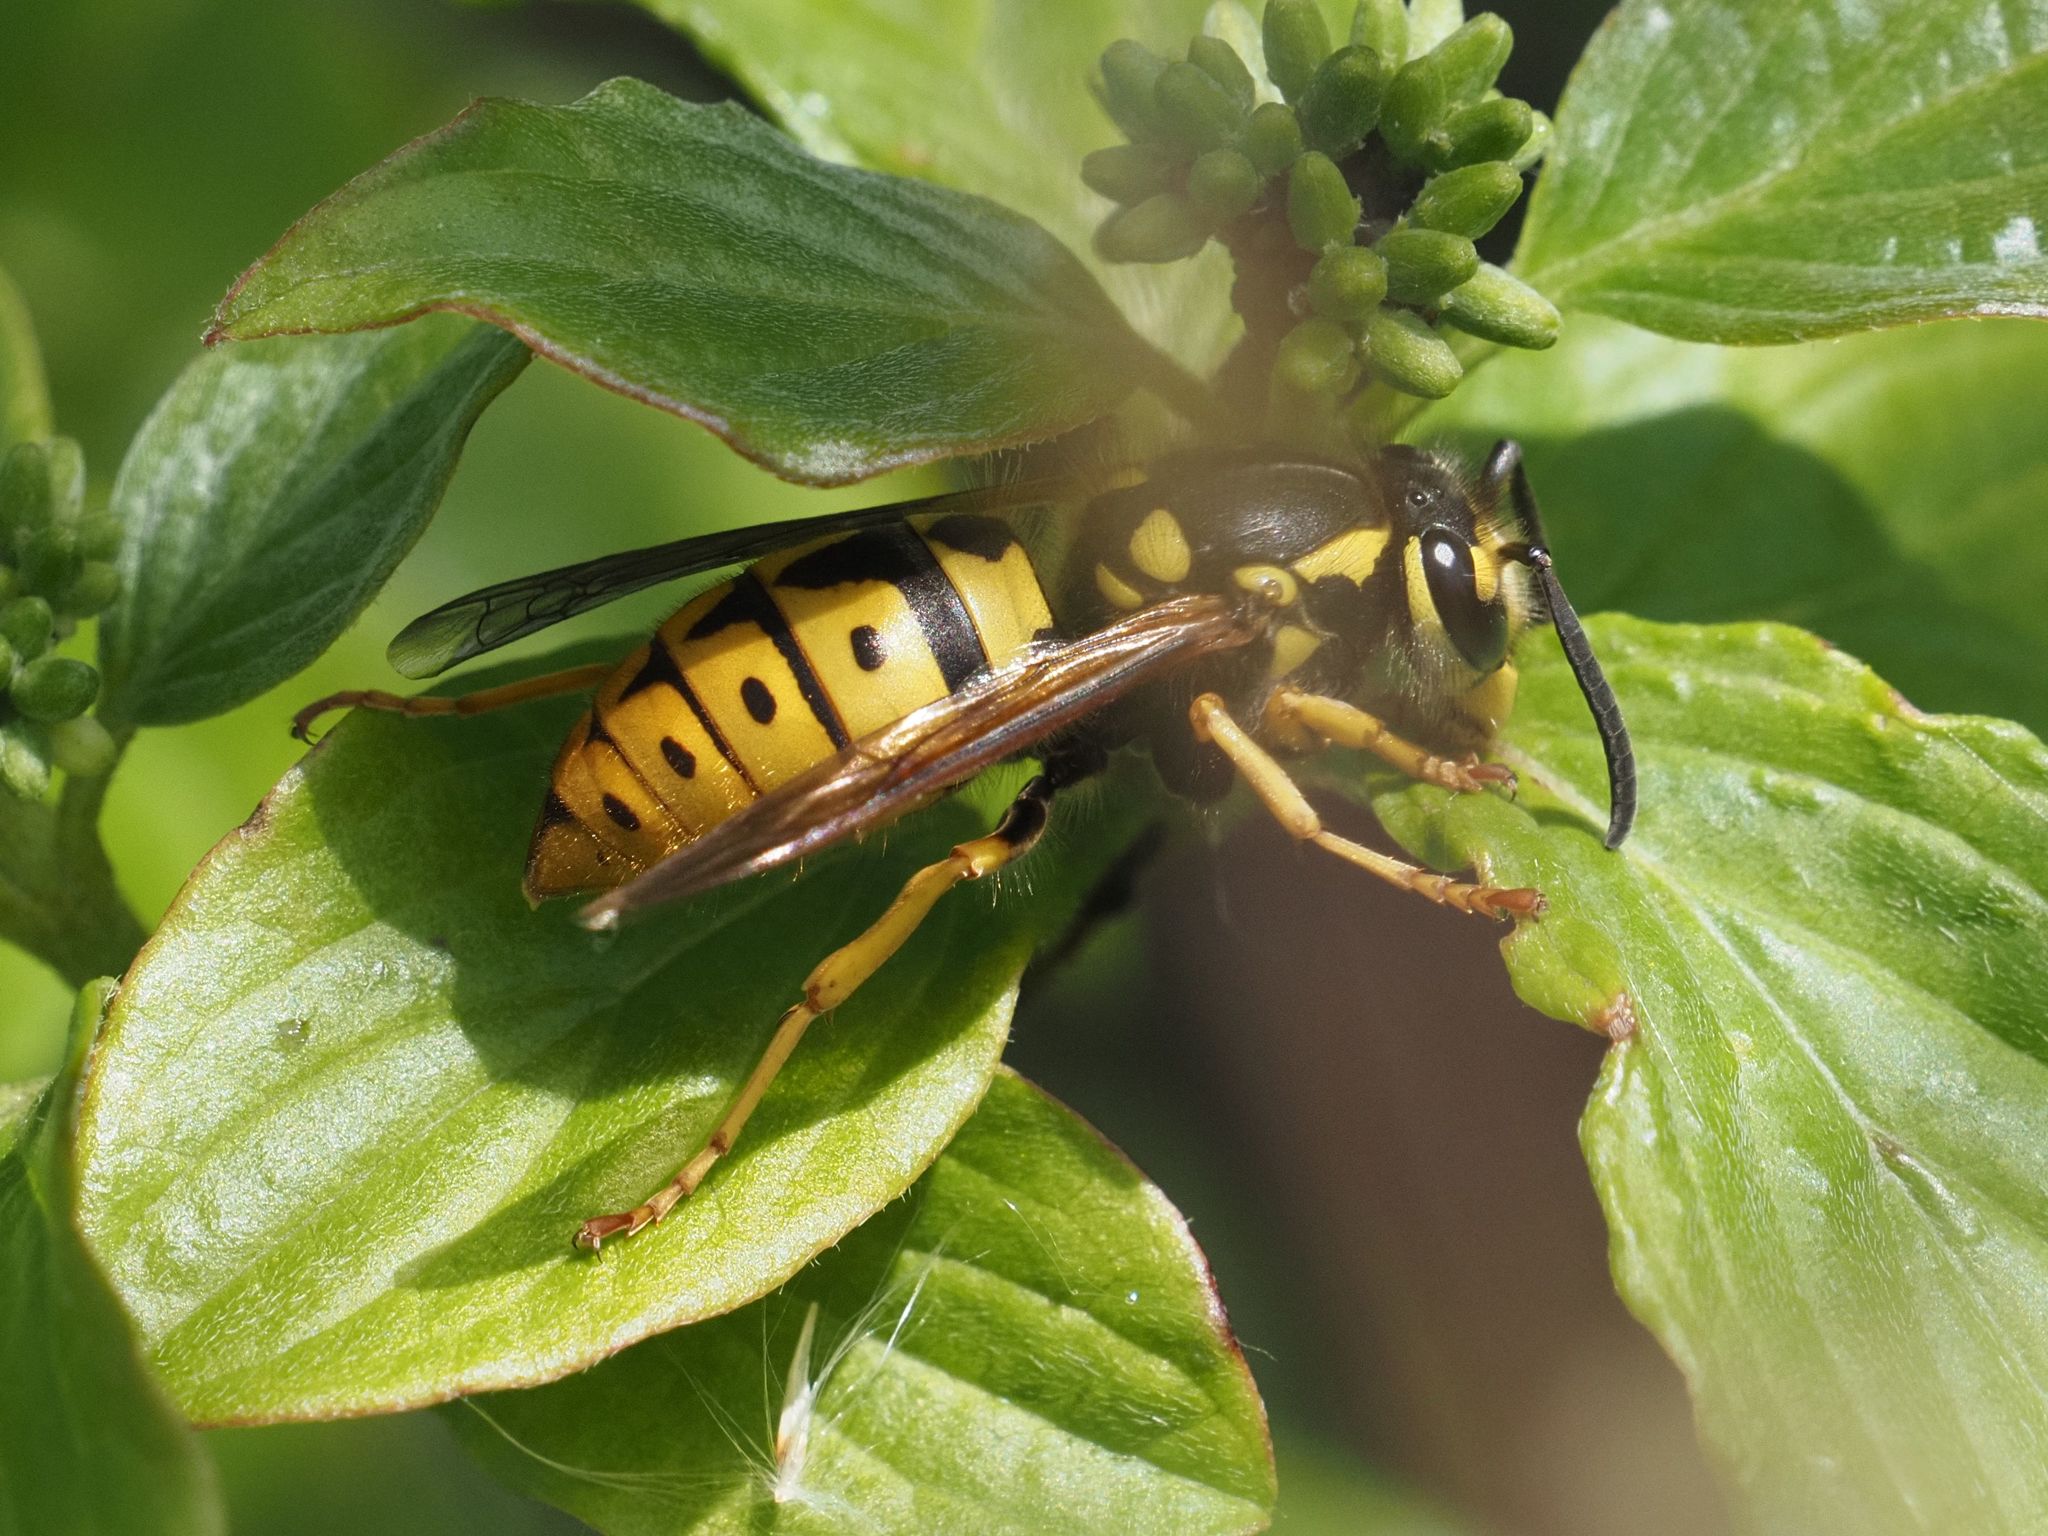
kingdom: Animalia
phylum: Arthropoda
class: Insecta
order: Hymenoptera
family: Vespidae
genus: Vespula
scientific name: Vespula germanica
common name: German wasp
